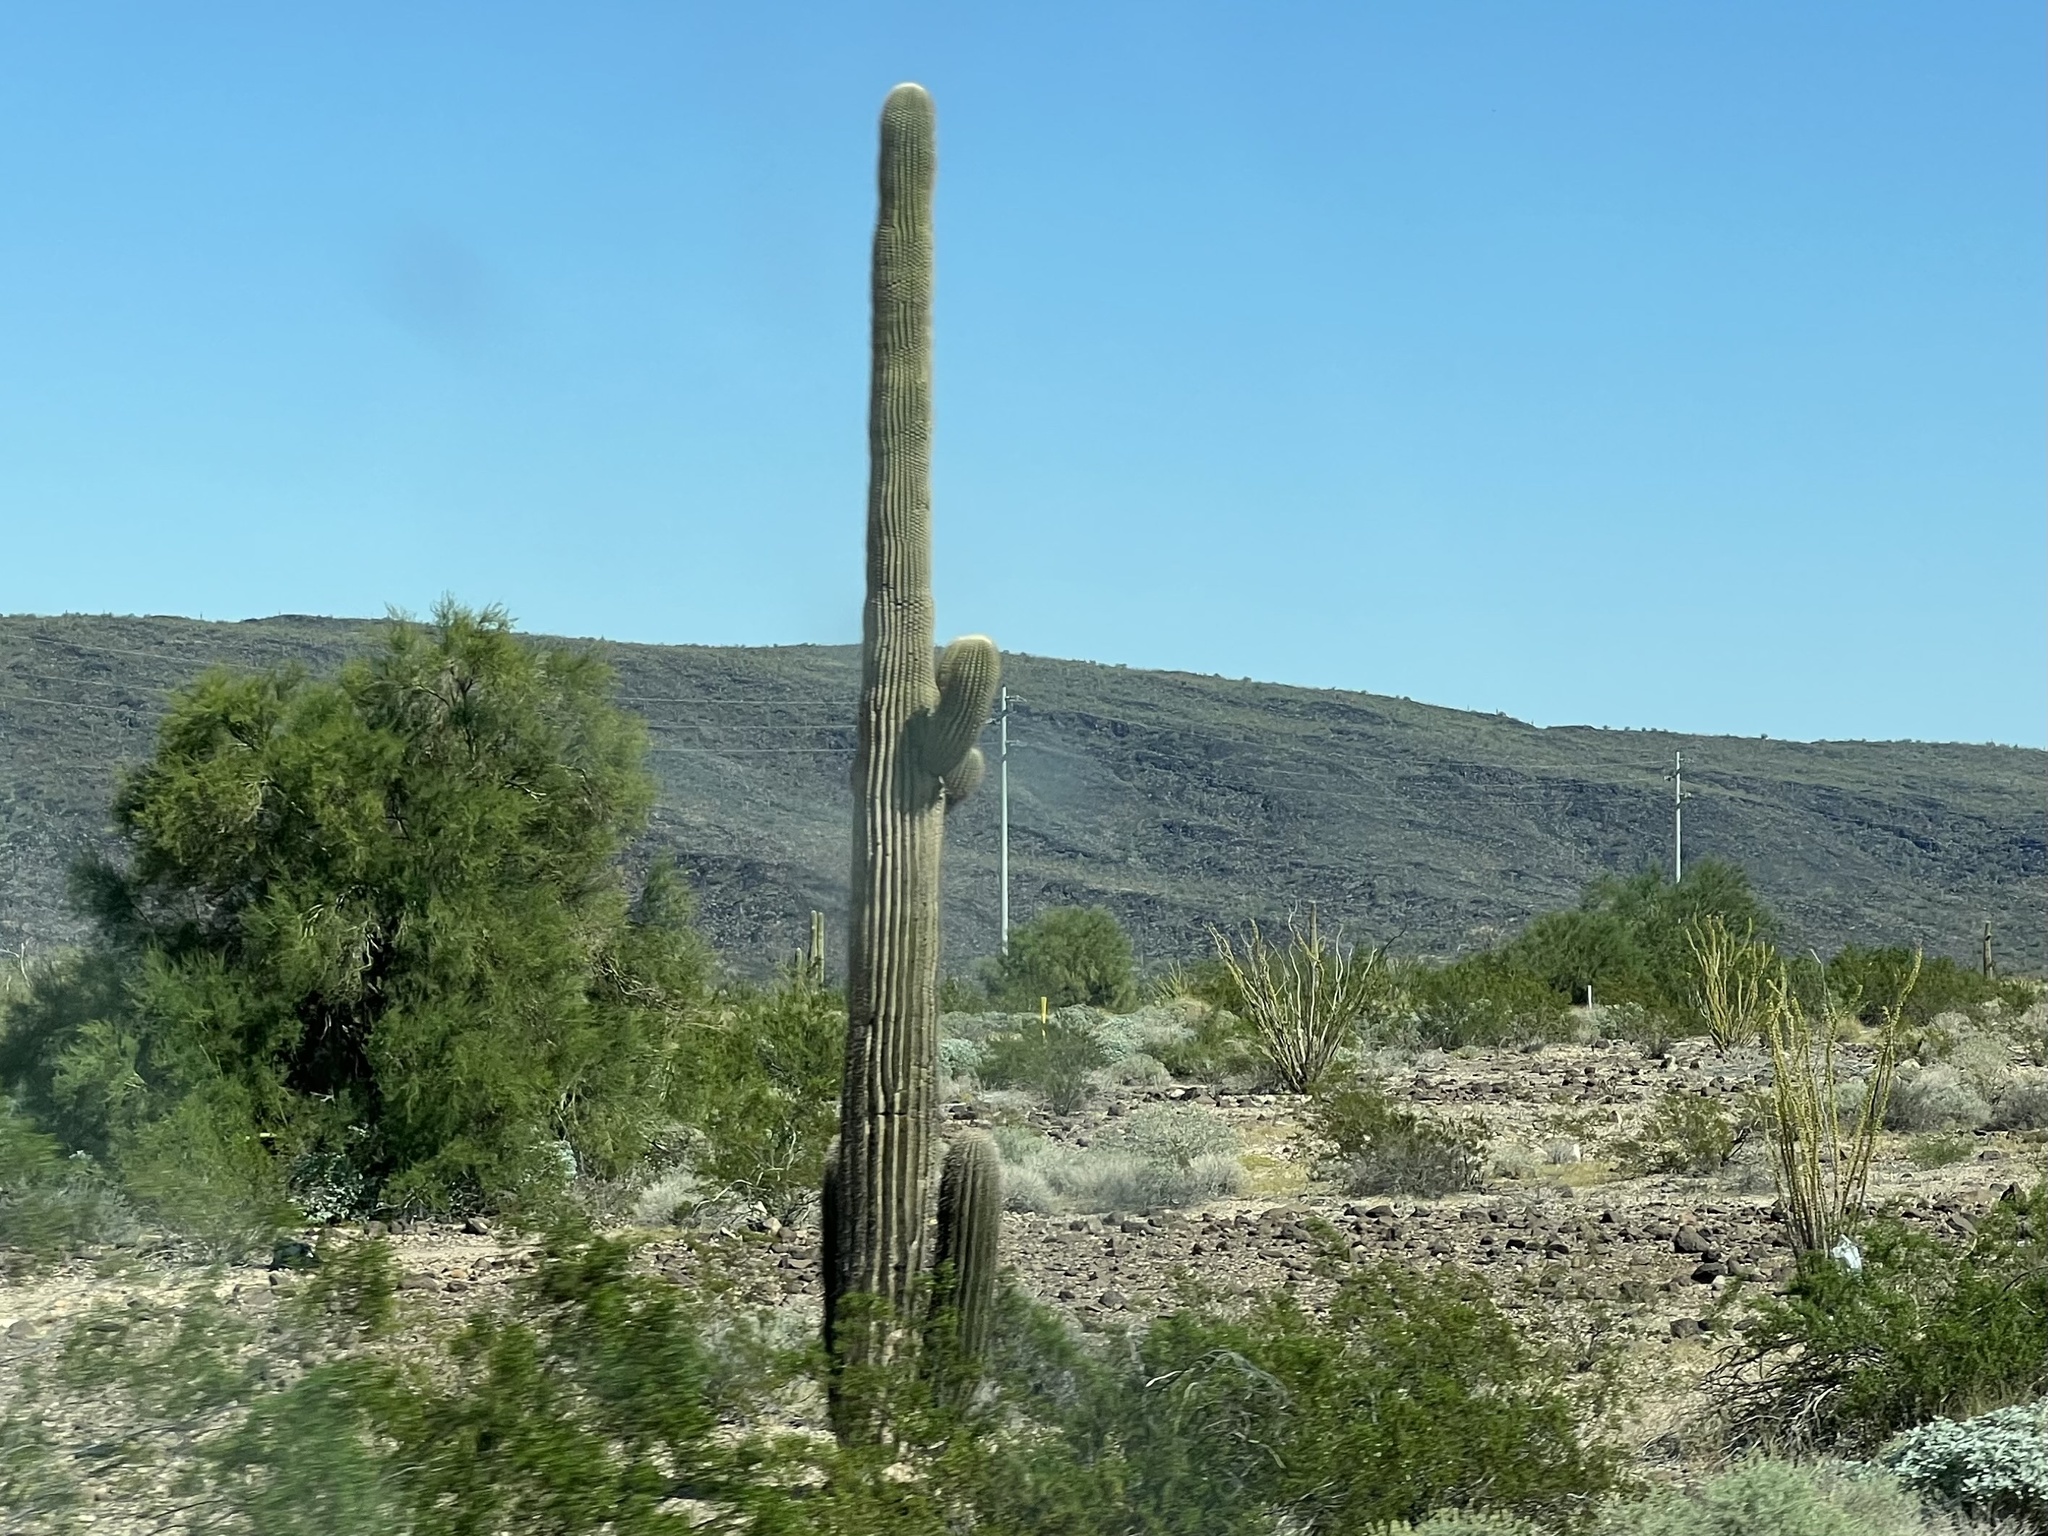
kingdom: Plantae
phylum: Tracheophyta
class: Magnoliopsida
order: Caryophyllales
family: Cactaceae
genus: Carnegiea
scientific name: Carnegiea gigantea
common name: Saguaro
